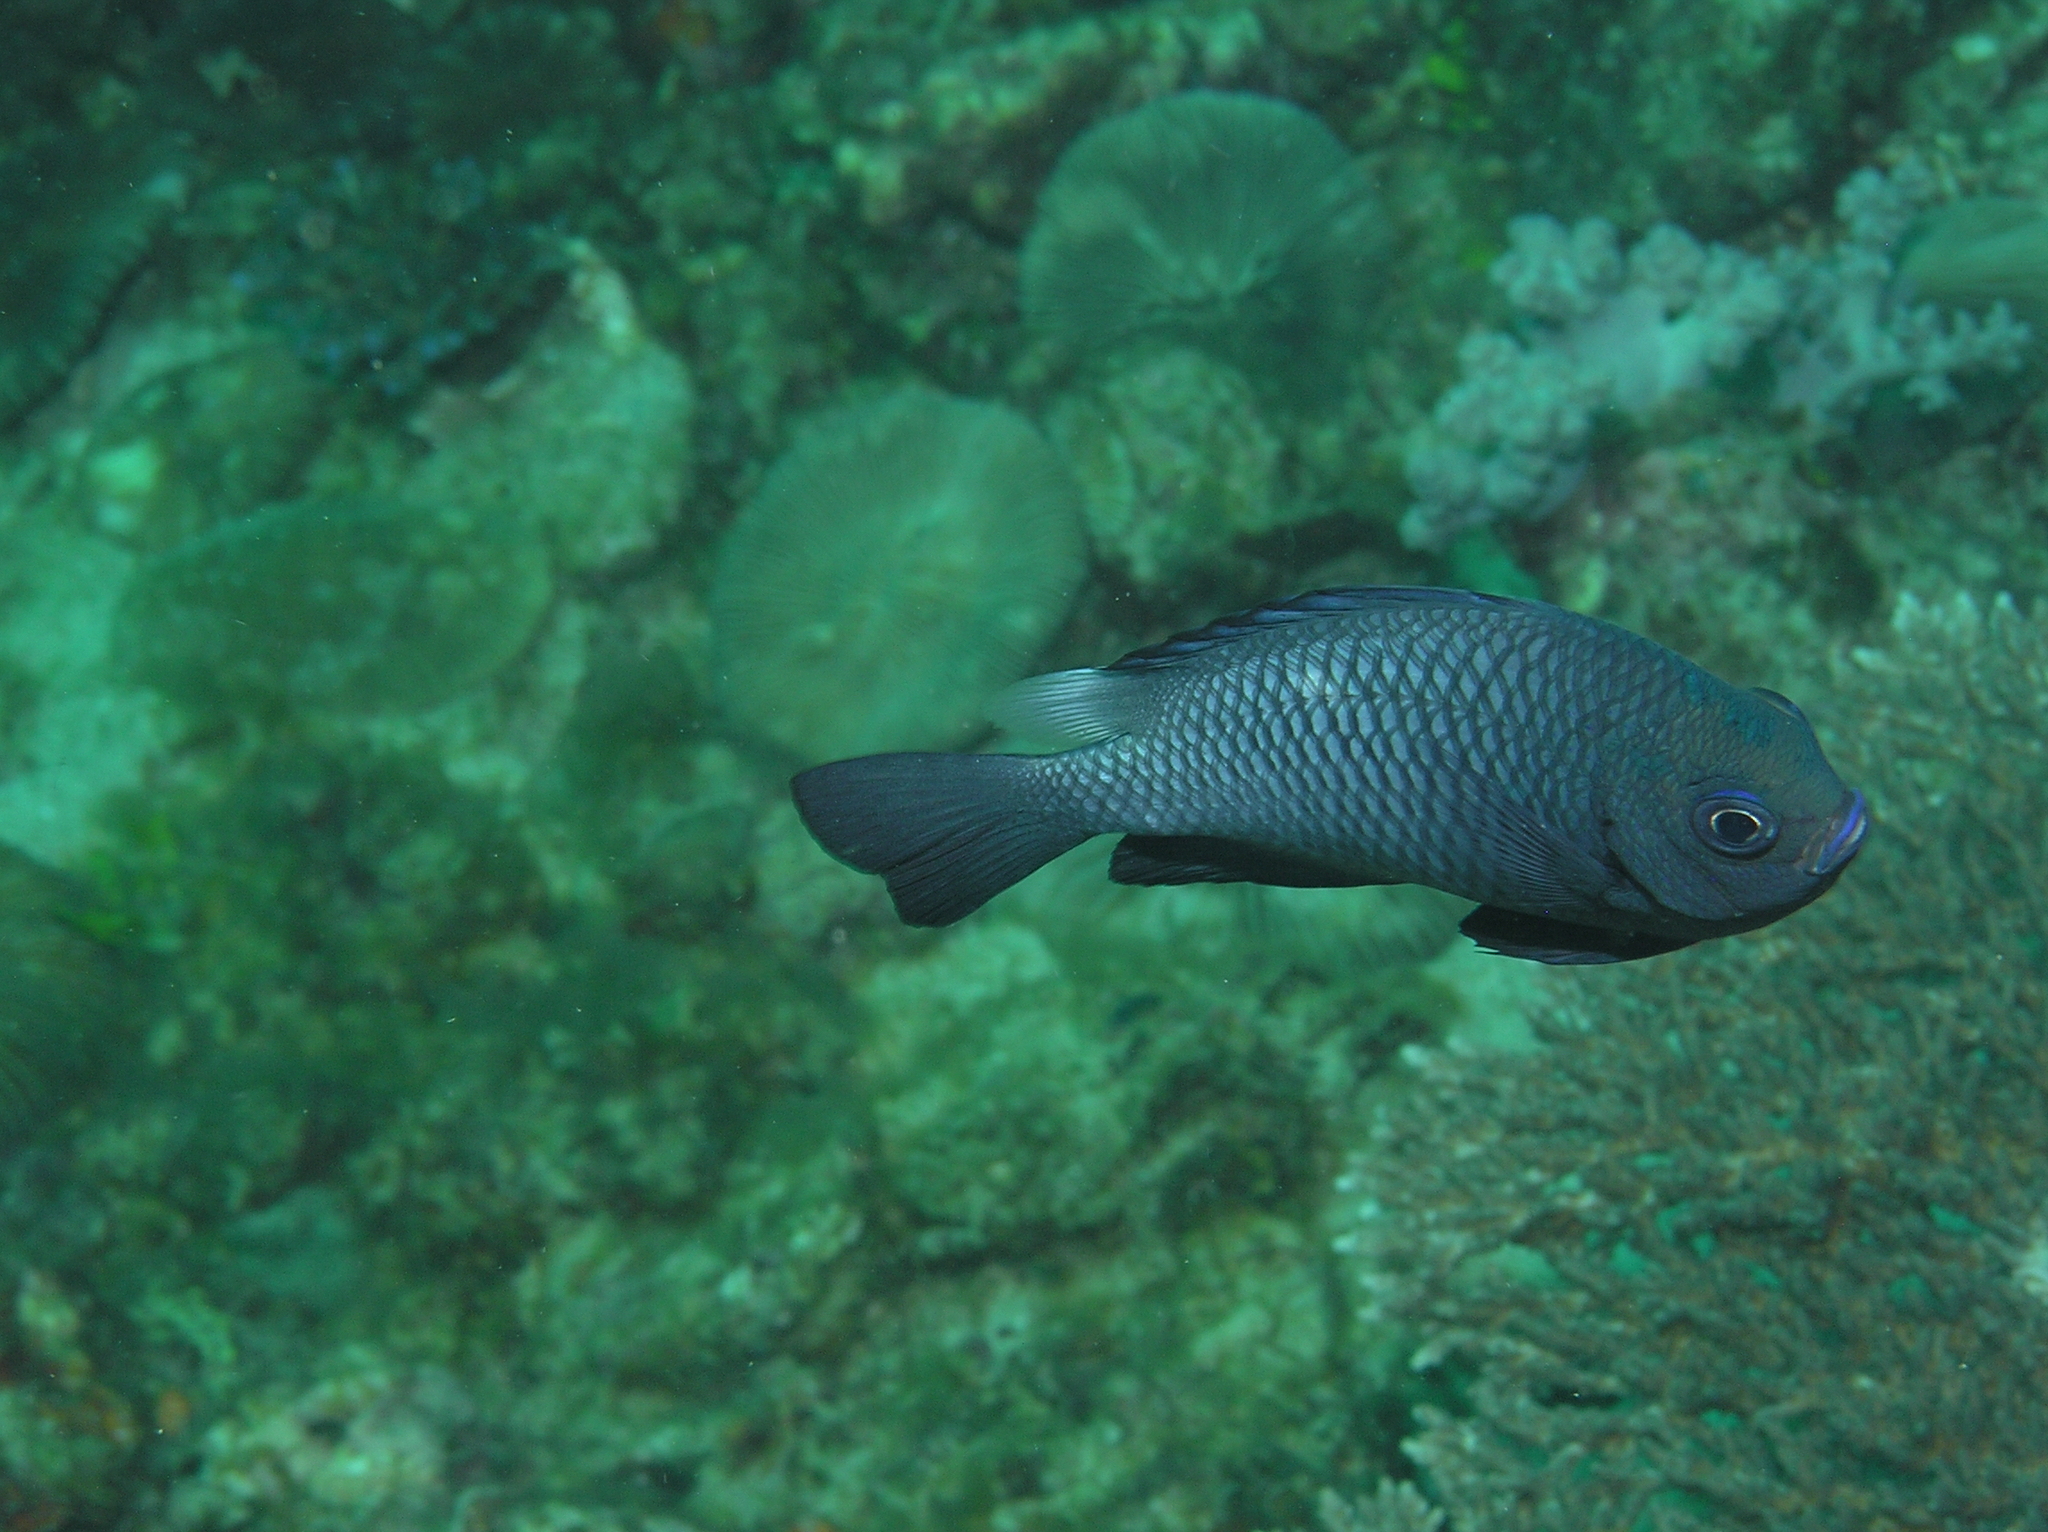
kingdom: Animalia
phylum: Chordata
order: Perciformes
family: Pomacentridae
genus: Dascyllus
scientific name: Dascyllus trimaculatus
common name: Threespot dascyllus
